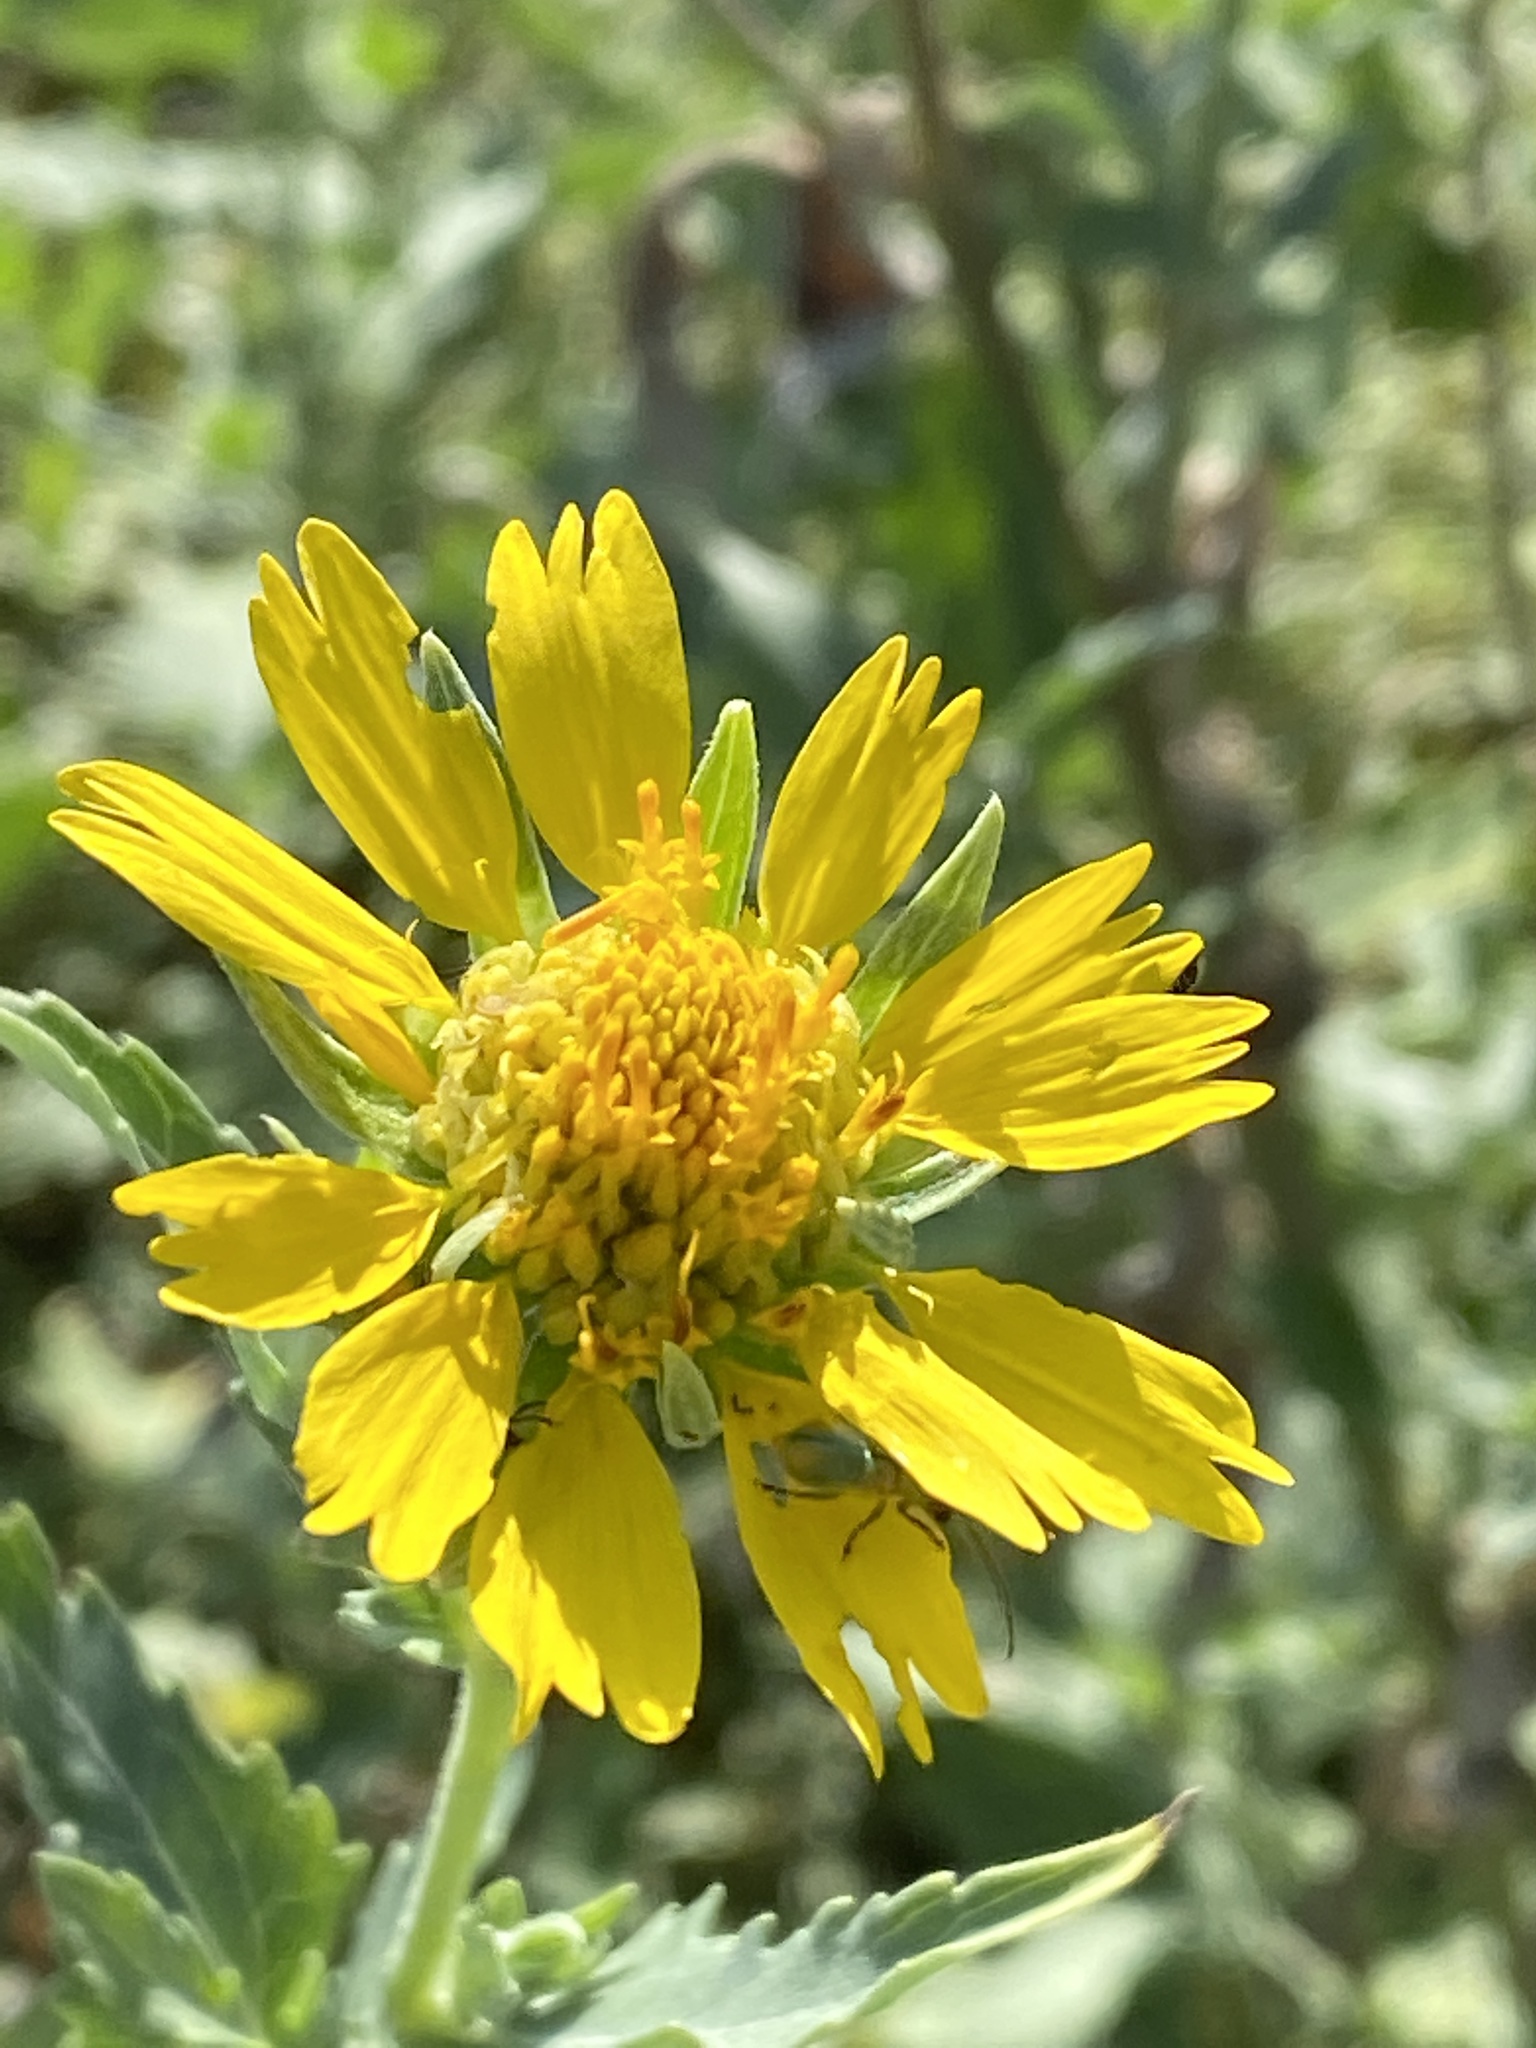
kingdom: Plantae
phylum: Tracheophyta
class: Magnoliopsida
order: Asterales
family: Asteraceae
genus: Verbesina
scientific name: Verbesina encelioides
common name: Golden crownbeard
